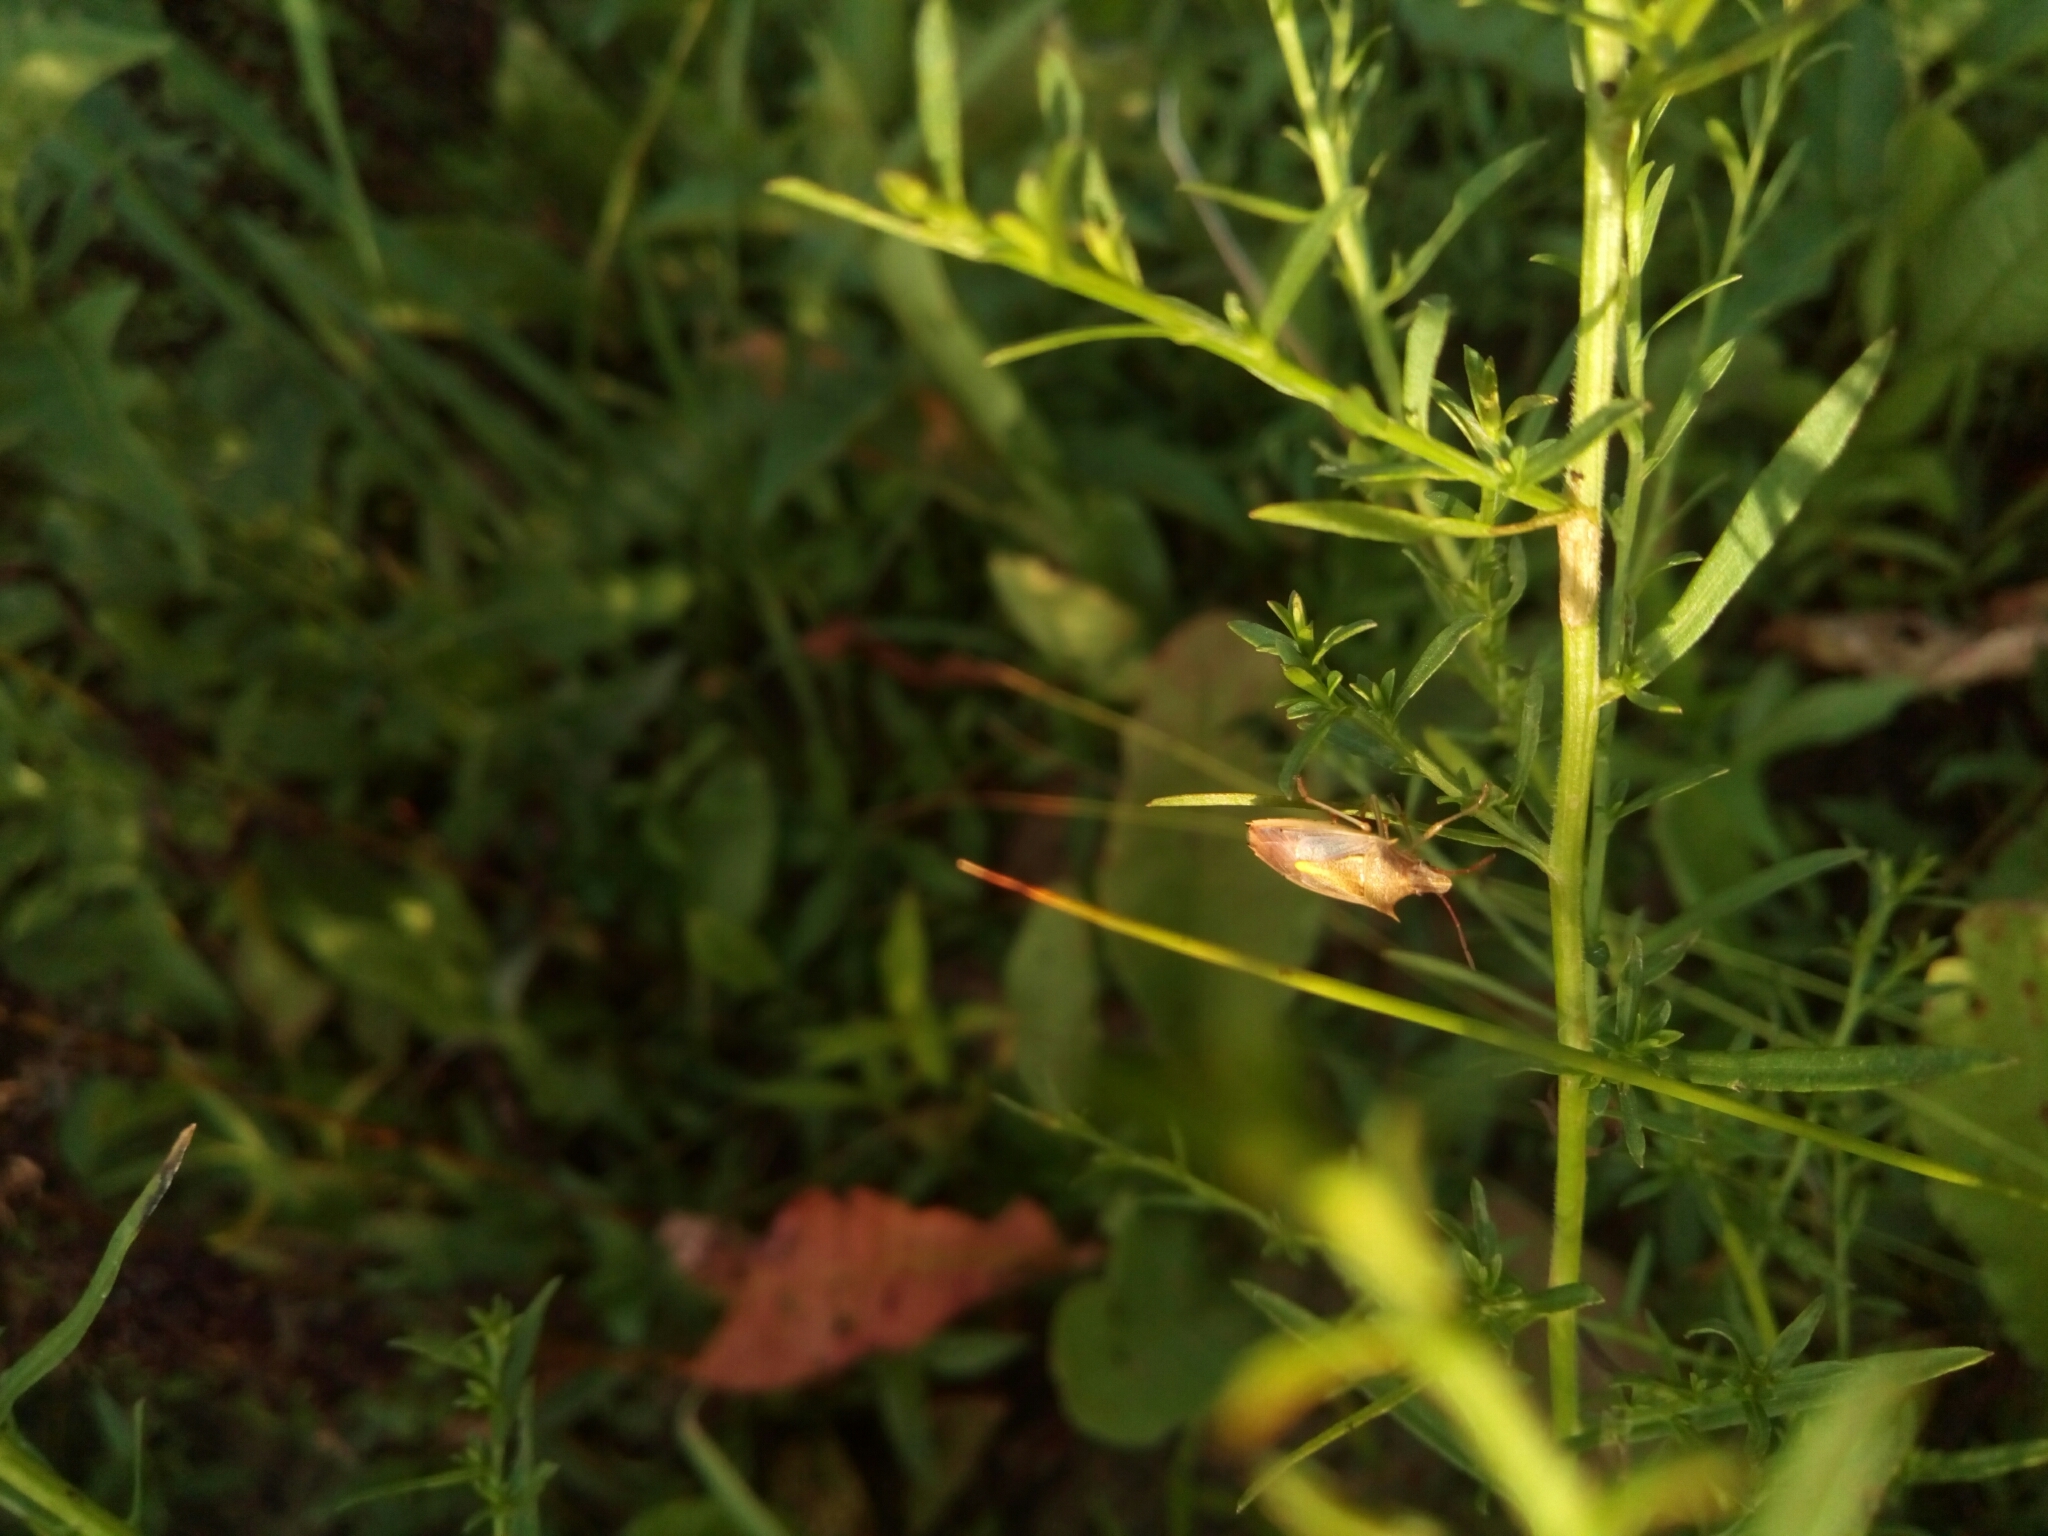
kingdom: Animalia
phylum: Arthropoda
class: Insecta
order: Hemiptera
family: Pentatomidae
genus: Oebalus
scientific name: Oebalus pugnax
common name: Rice stink bug
